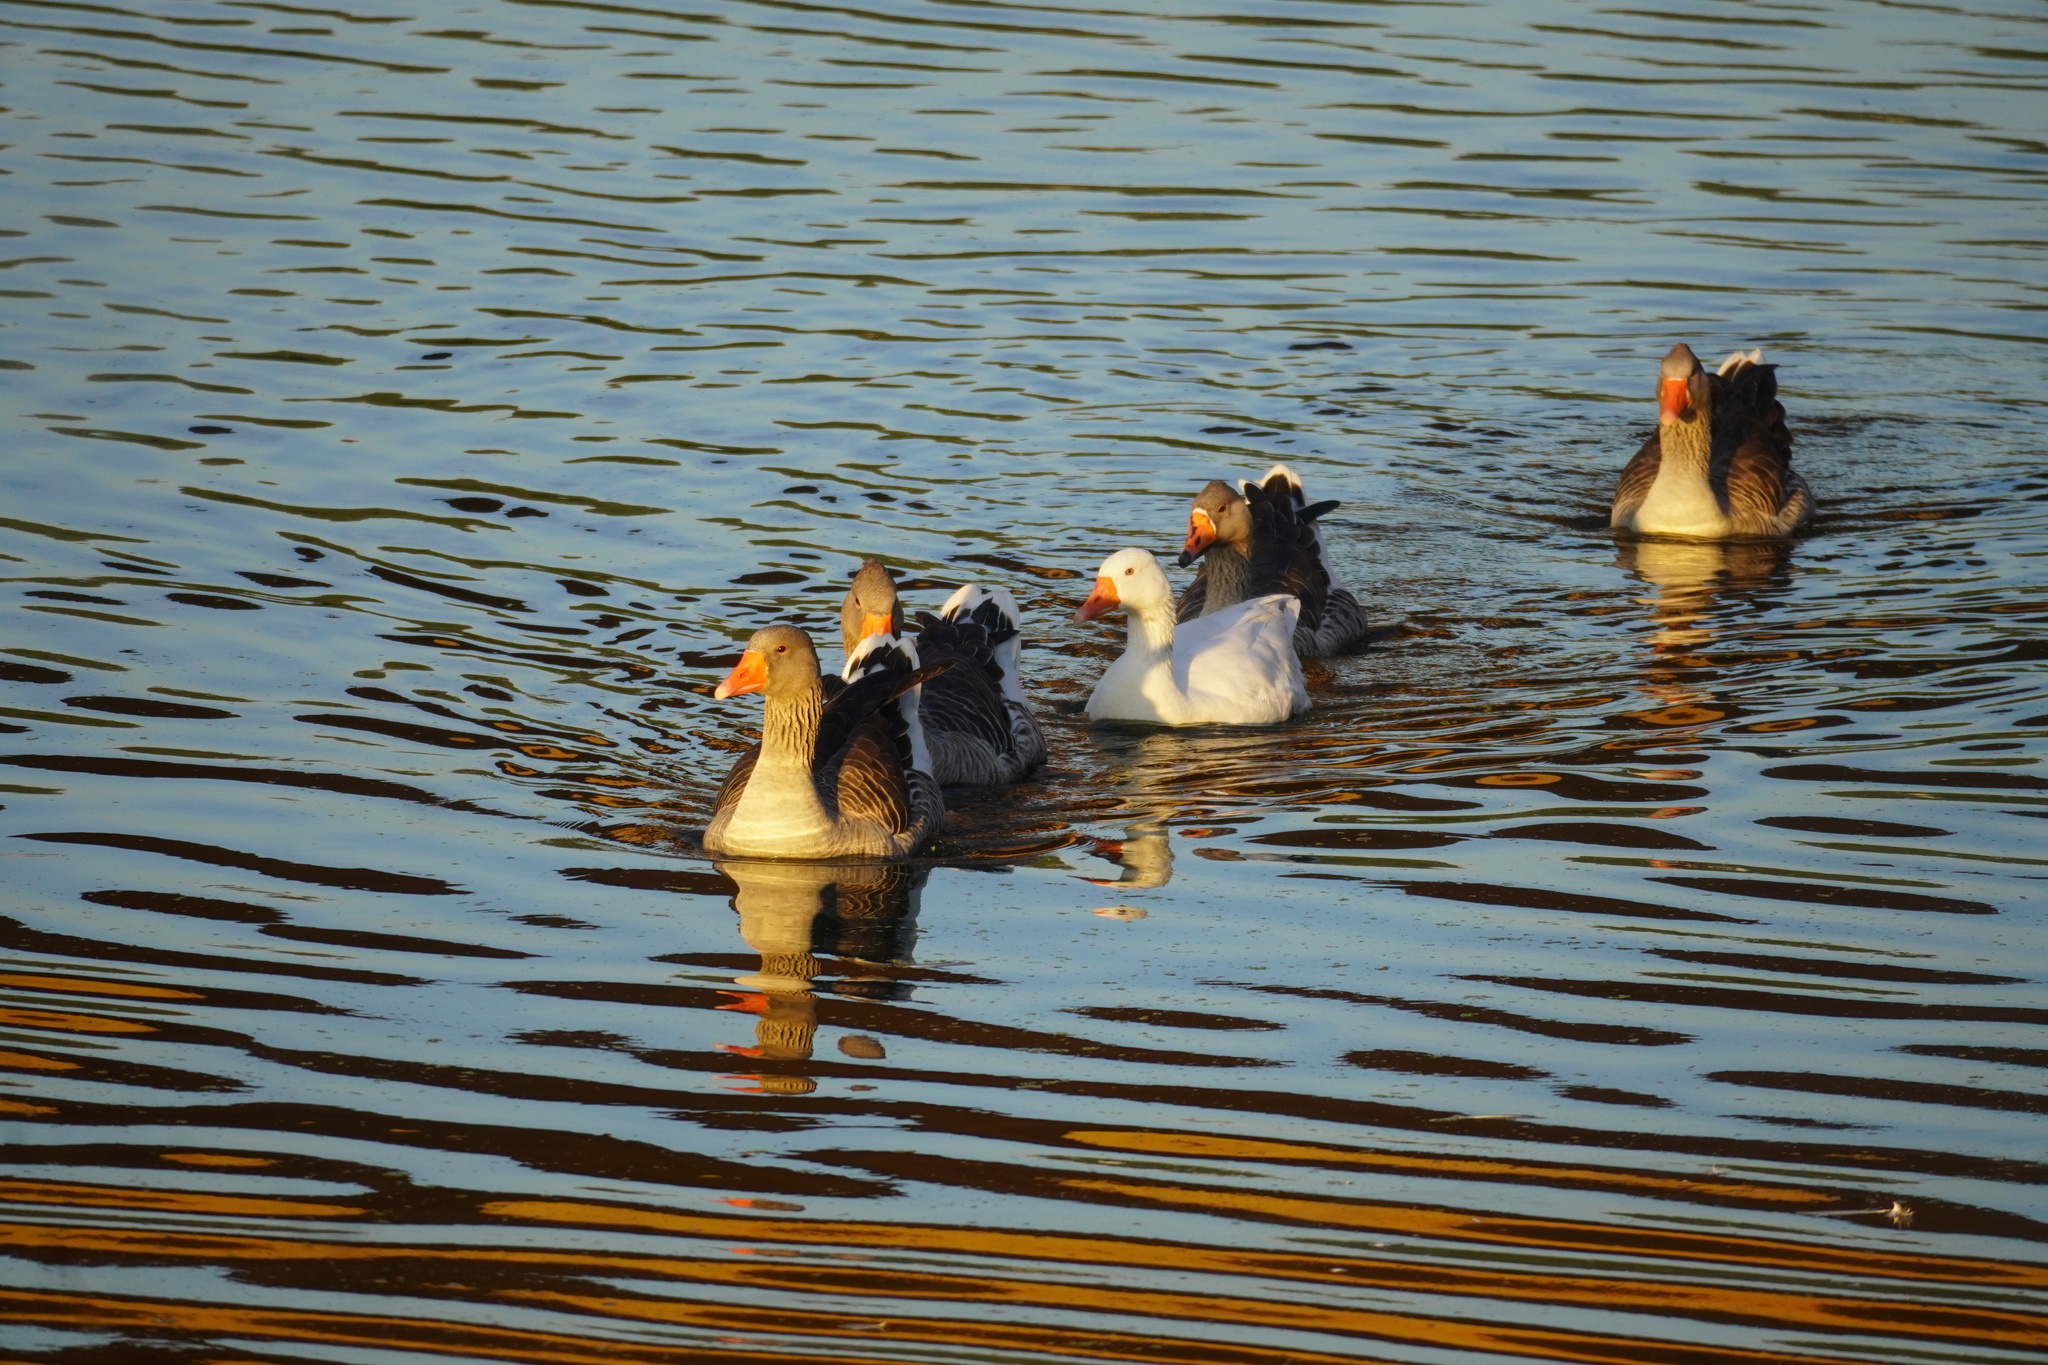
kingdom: Animalia
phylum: Chordata
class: Aves
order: Anseriformes
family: Anatidae
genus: Anser
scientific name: Anser anser
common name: Greylag goose
